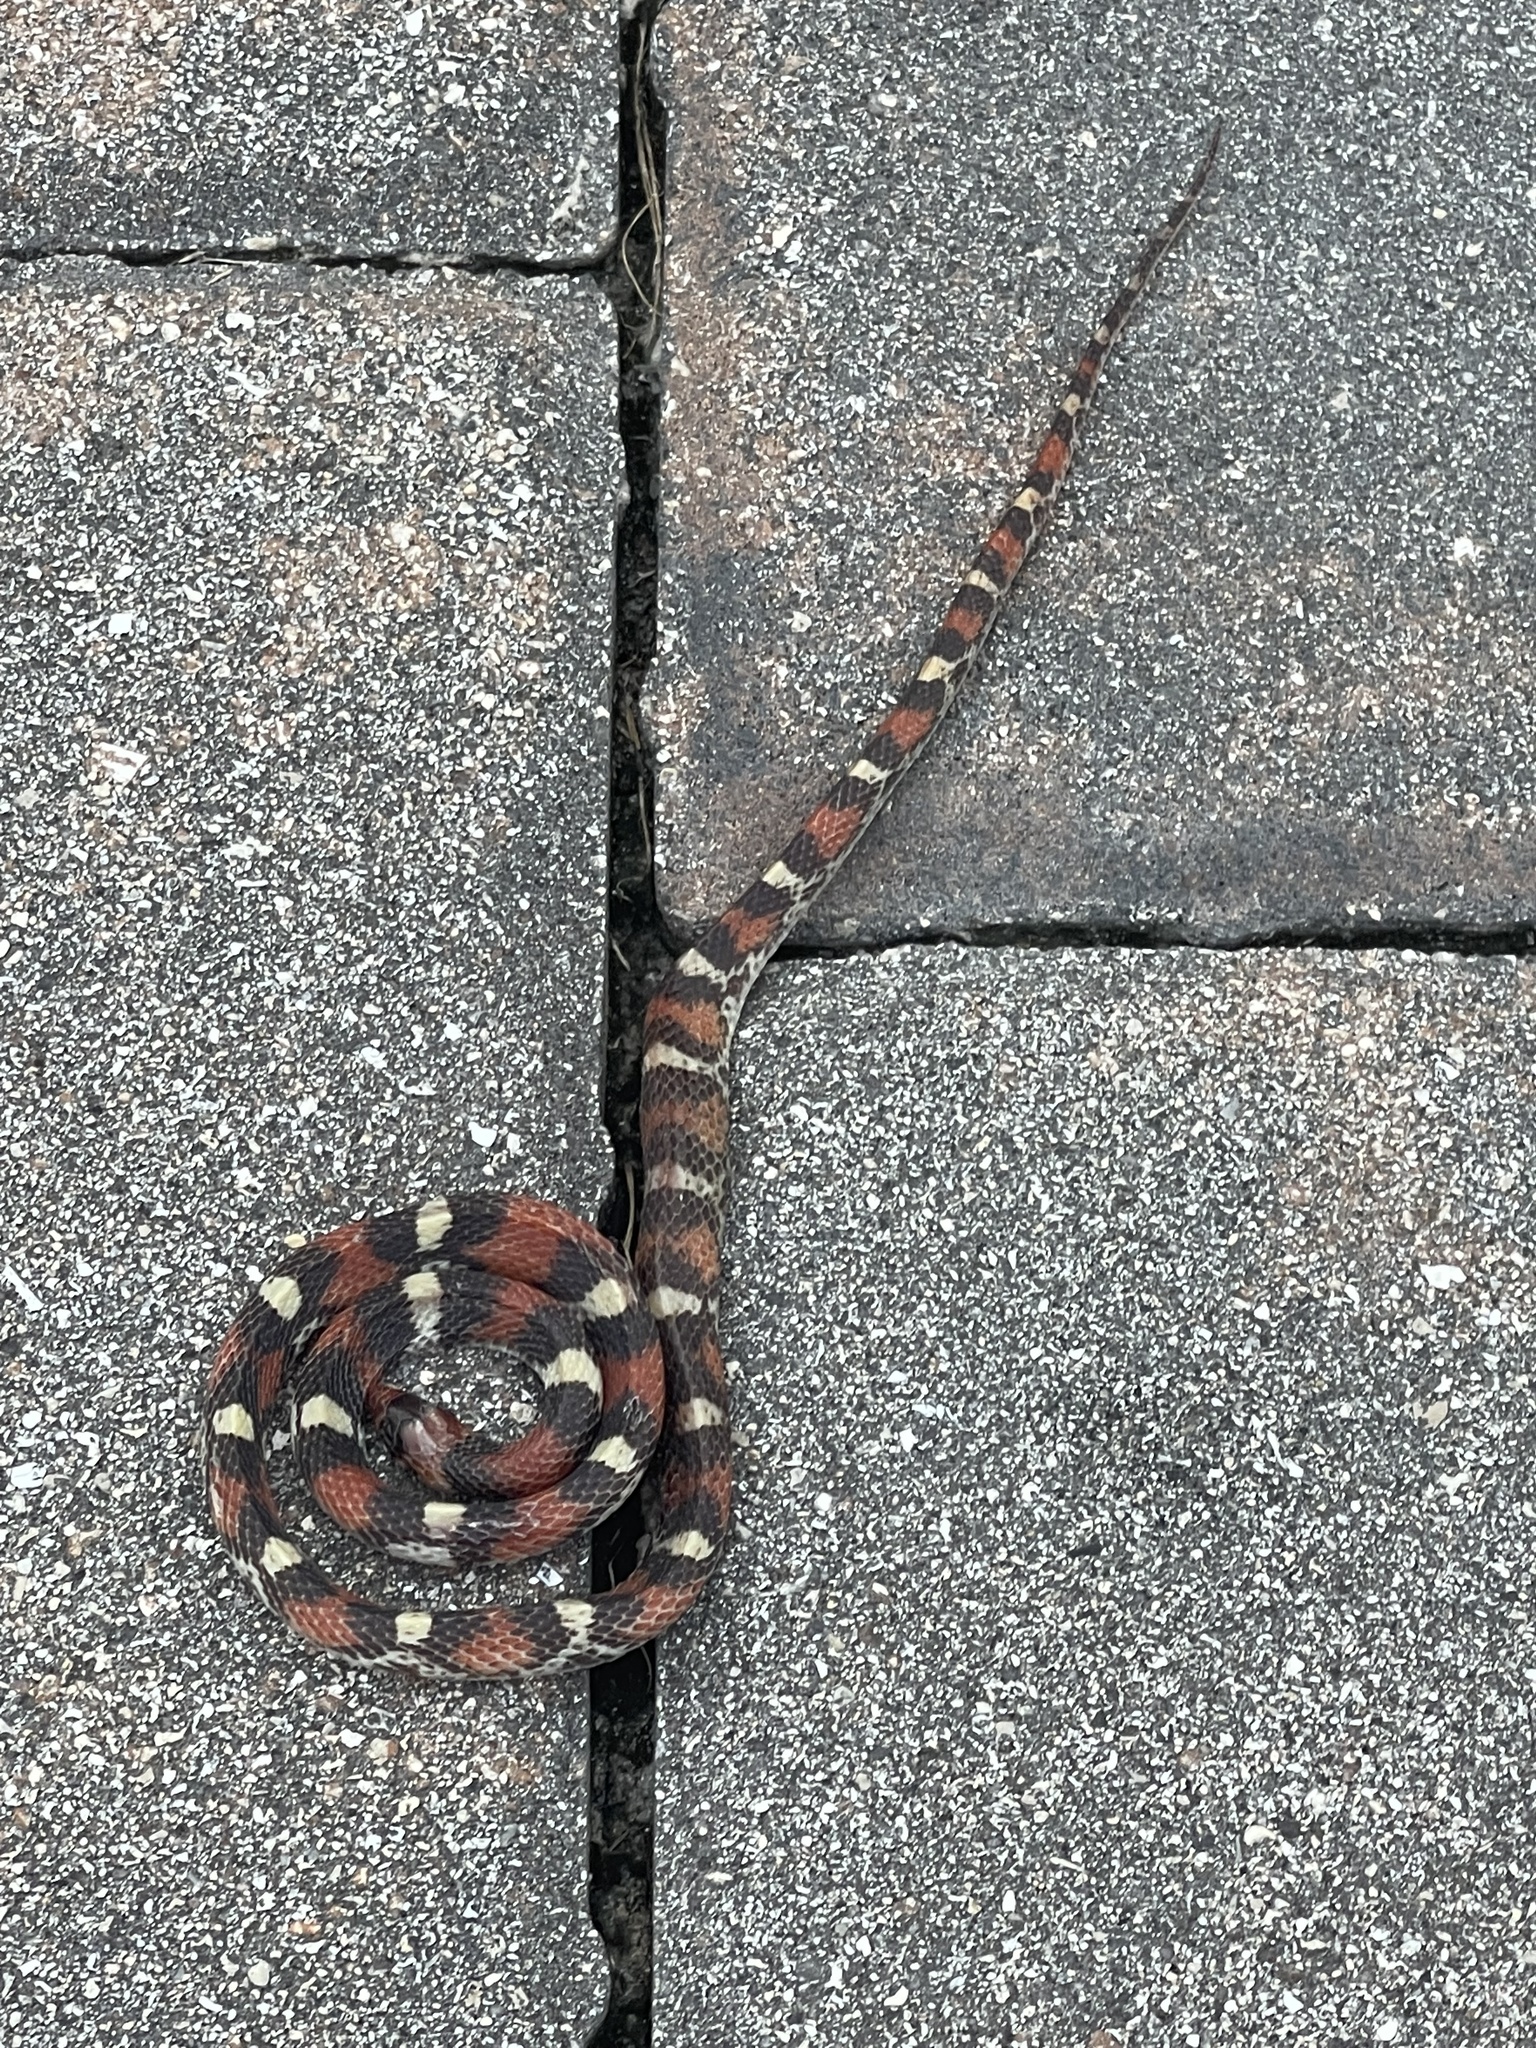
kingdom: Animalia
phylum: Chordata
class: Squamata
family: Colubridae
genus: Cemophora
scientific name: Cemophora coccinea
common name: Scarlet snake
